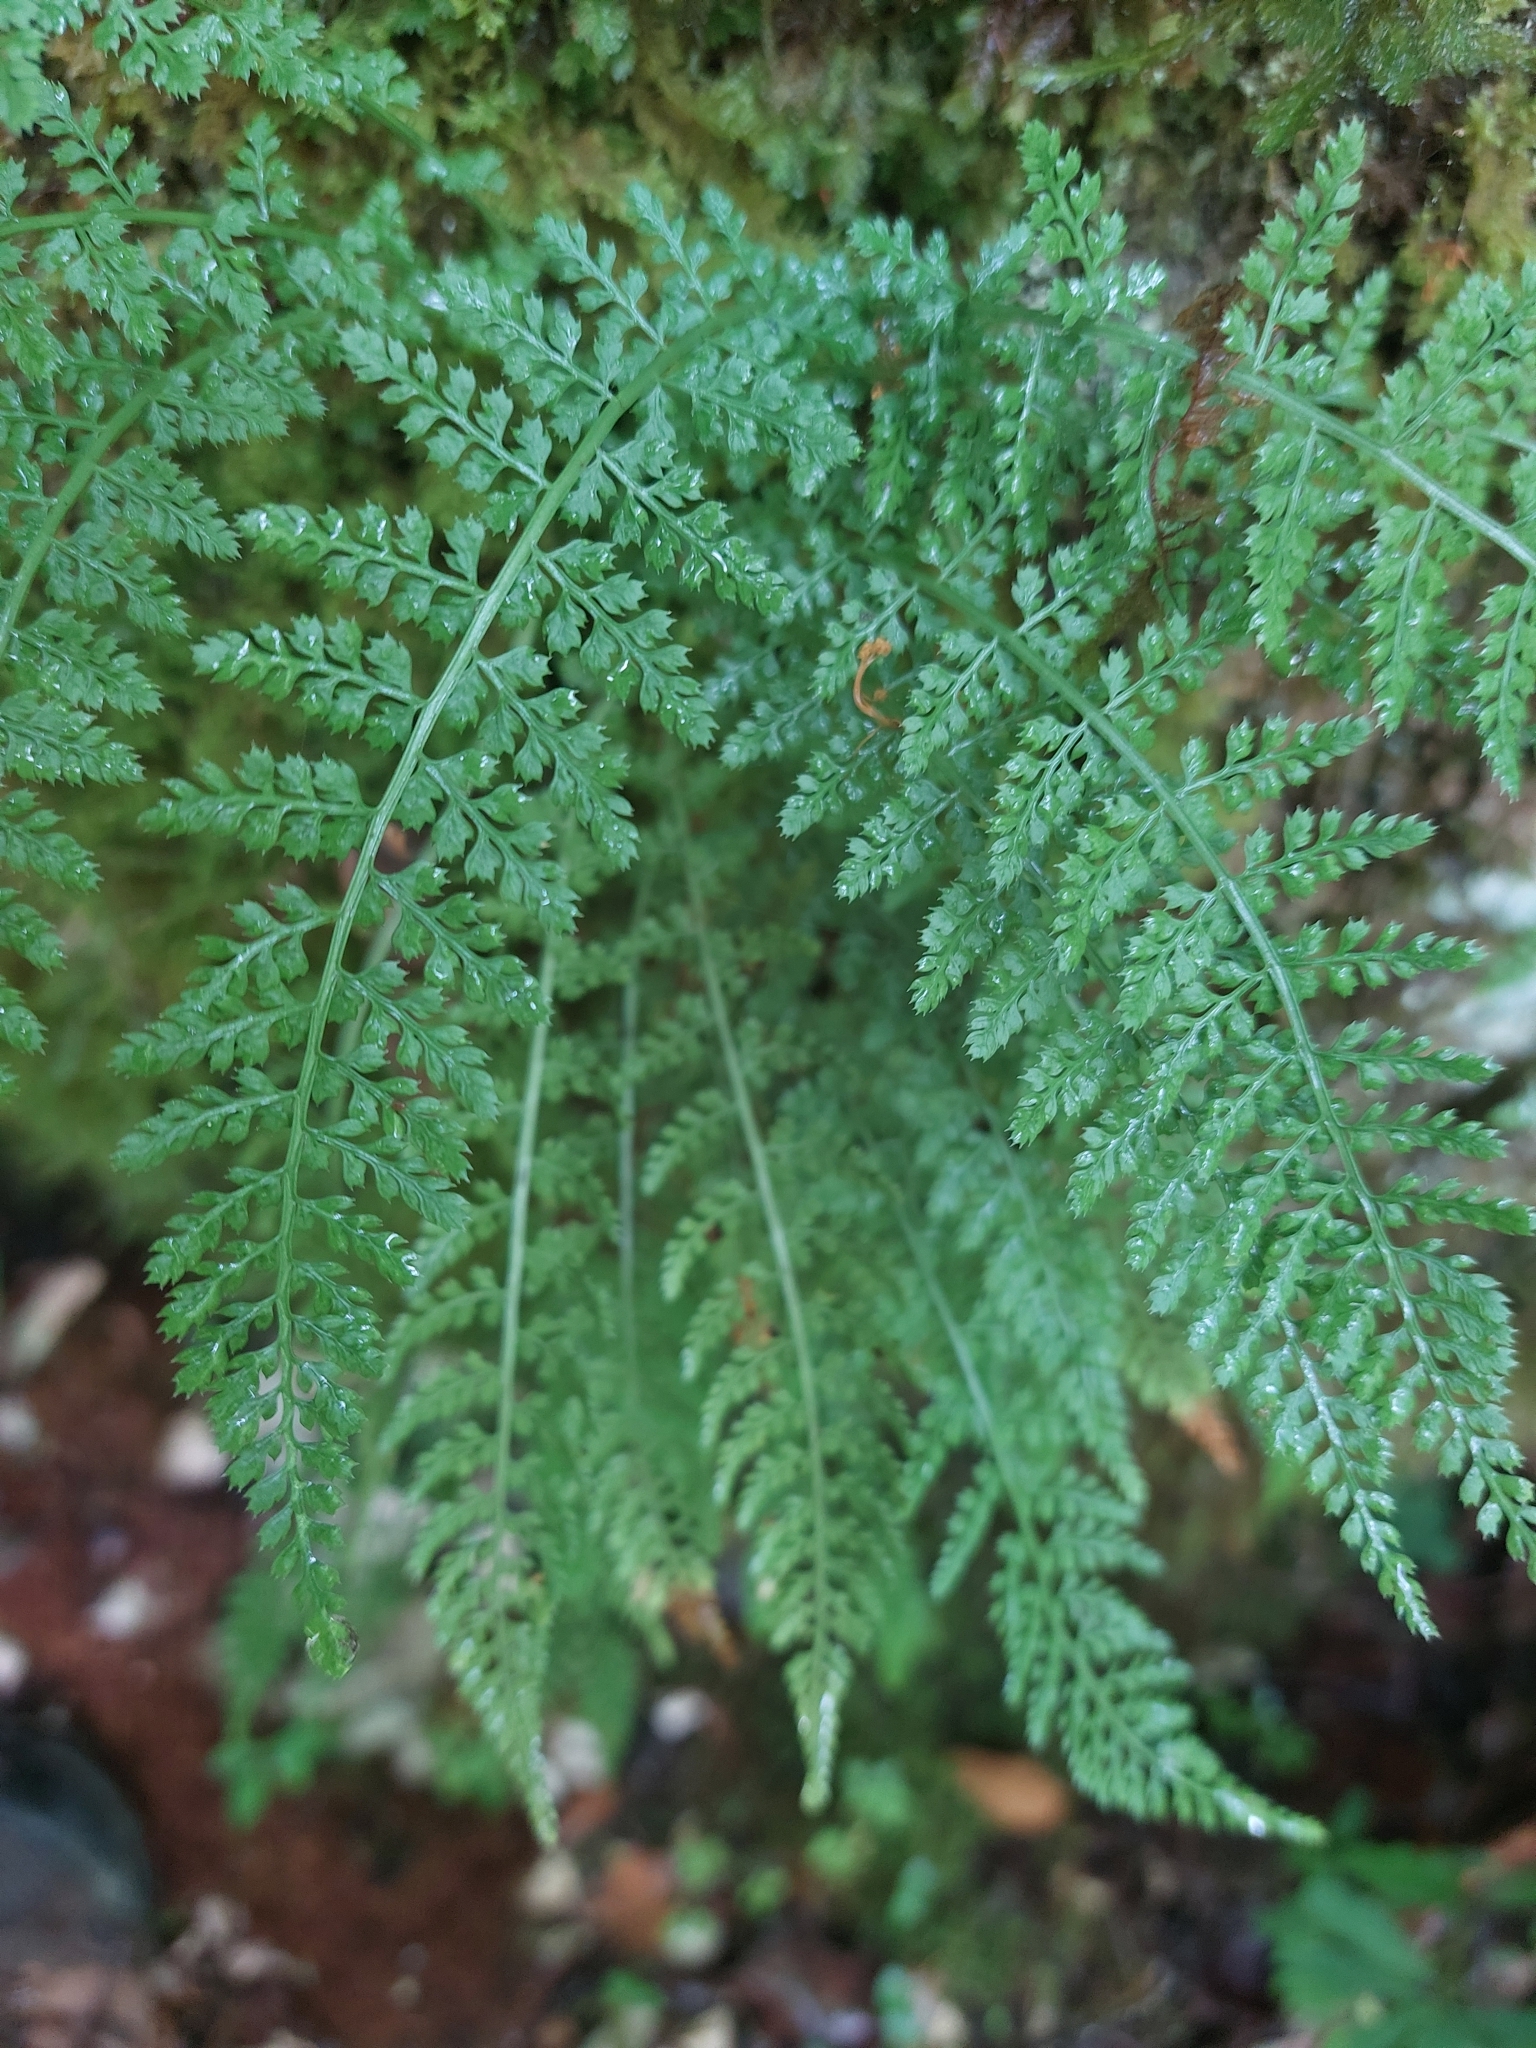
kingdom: Plantae
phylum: Tracheophyta
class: Polypodiopsida
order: Polypodiales
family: Aspleniaceae
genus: Asplenium
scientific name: Asplenium fontanum
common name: Fountain spleenwort
